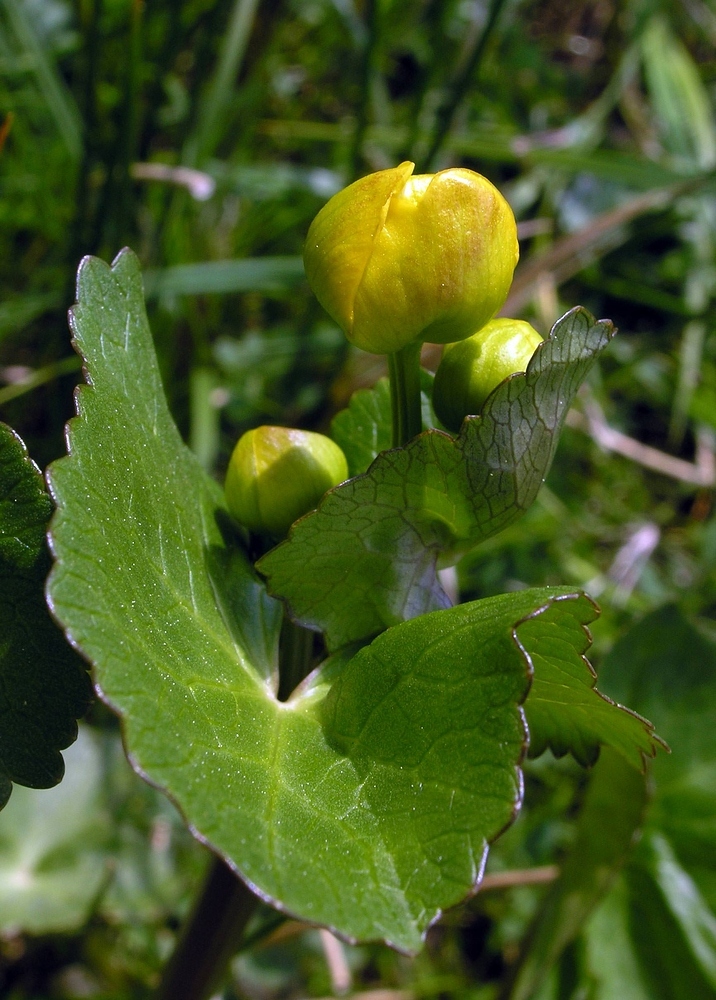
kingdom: Plantae
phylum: Tracheophyta
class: Magnoliopsida
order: Ranunculales
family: Ranunculaceae
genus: Caltha
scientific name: Caltha palustris
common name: Marsh marigold
